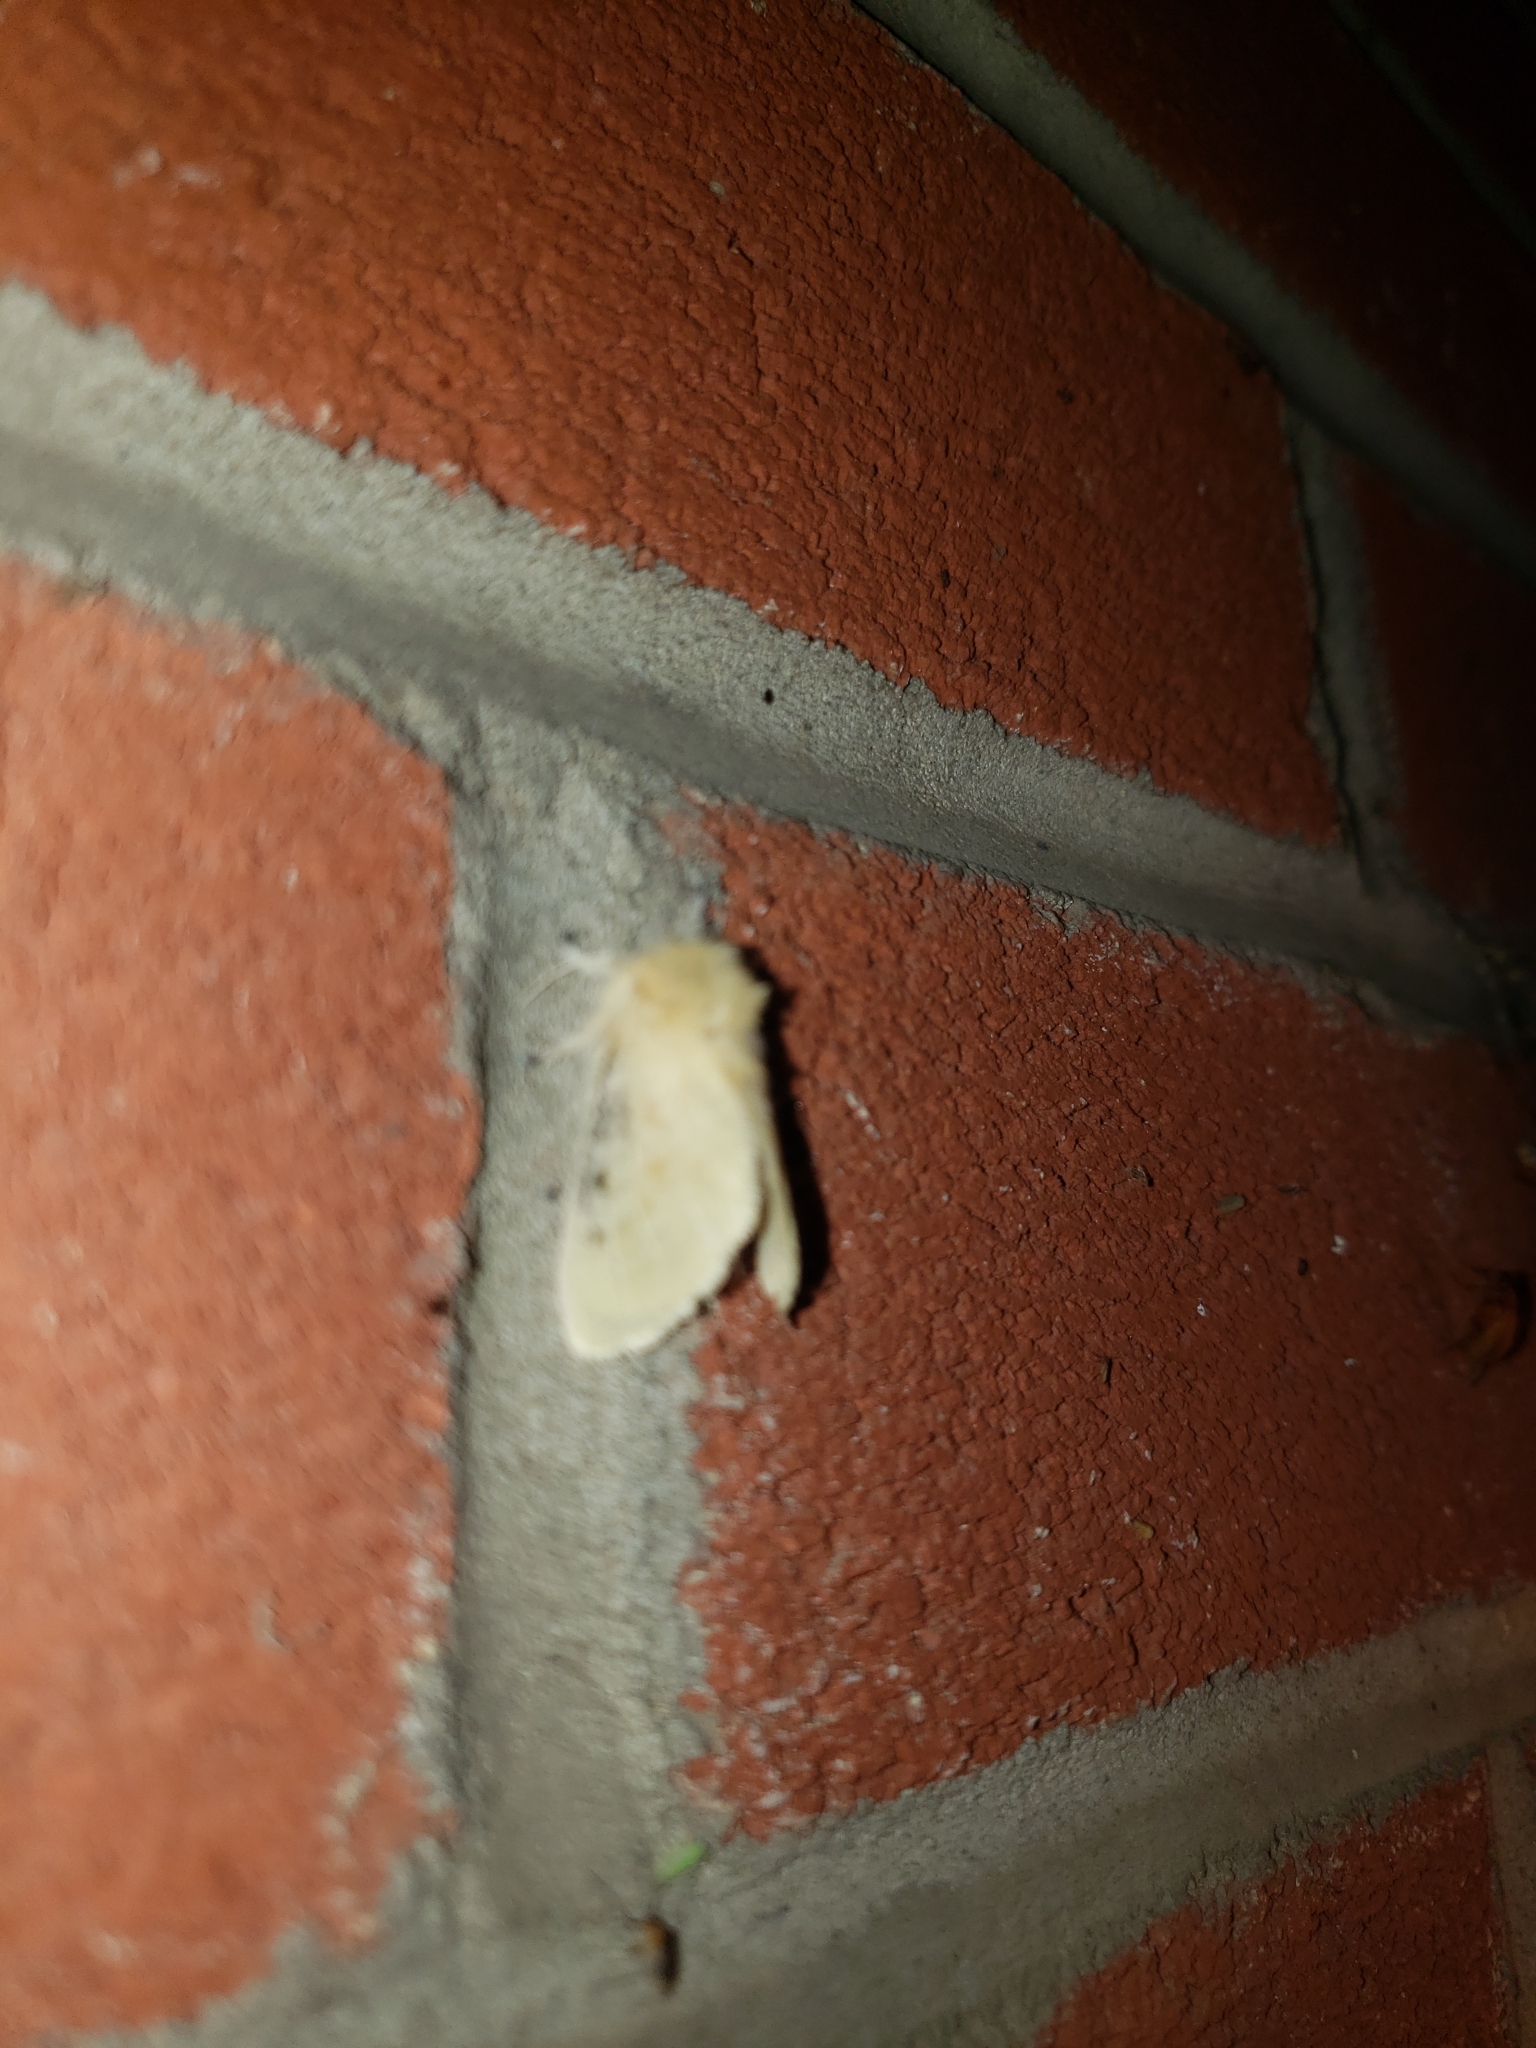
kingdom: Animalia
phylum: Arthropoda
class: Insecta
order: Lepidoptera
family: Megalopygidae
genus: Megalopyge
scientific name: Megalopyge crispata
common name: Black-waved flannel moth
